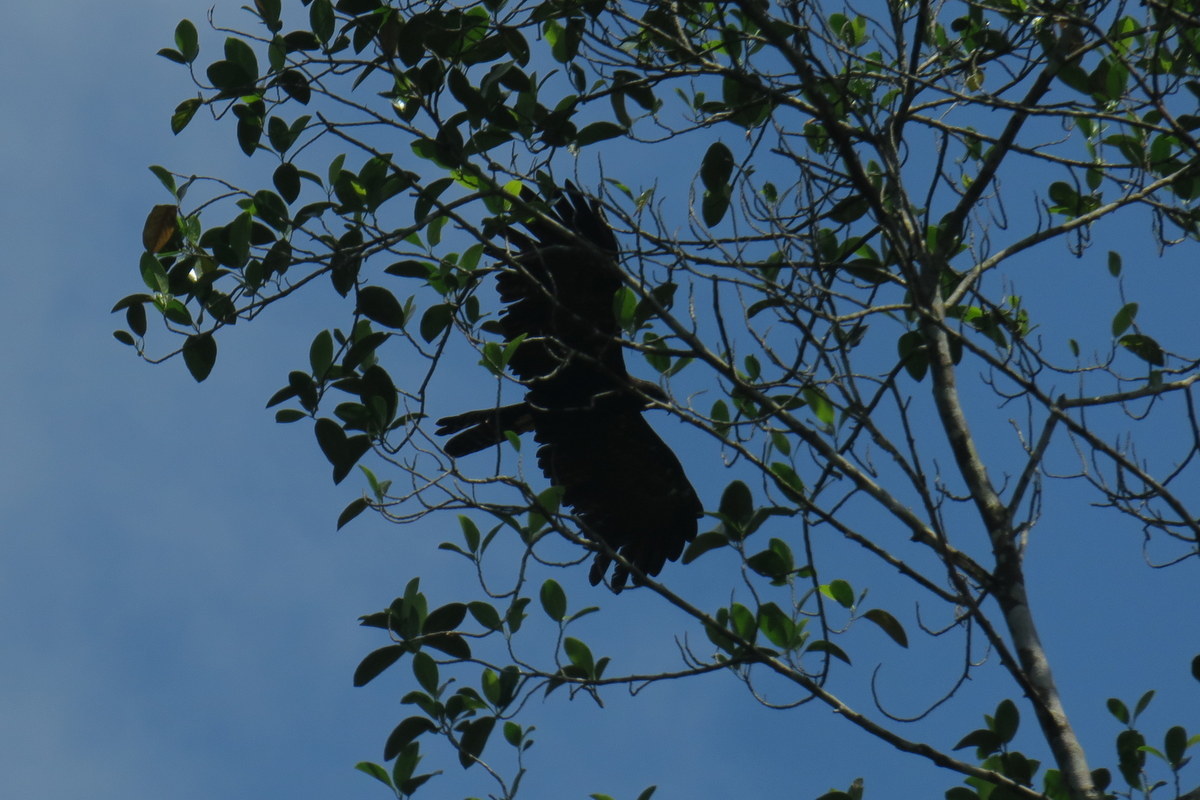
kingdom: Animalia
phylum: Chordata
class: Aves
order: Accipitriformes
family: Accipitridae
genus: Ictinaetus
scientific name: Ictinaetus malayensis
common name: Black eagle
